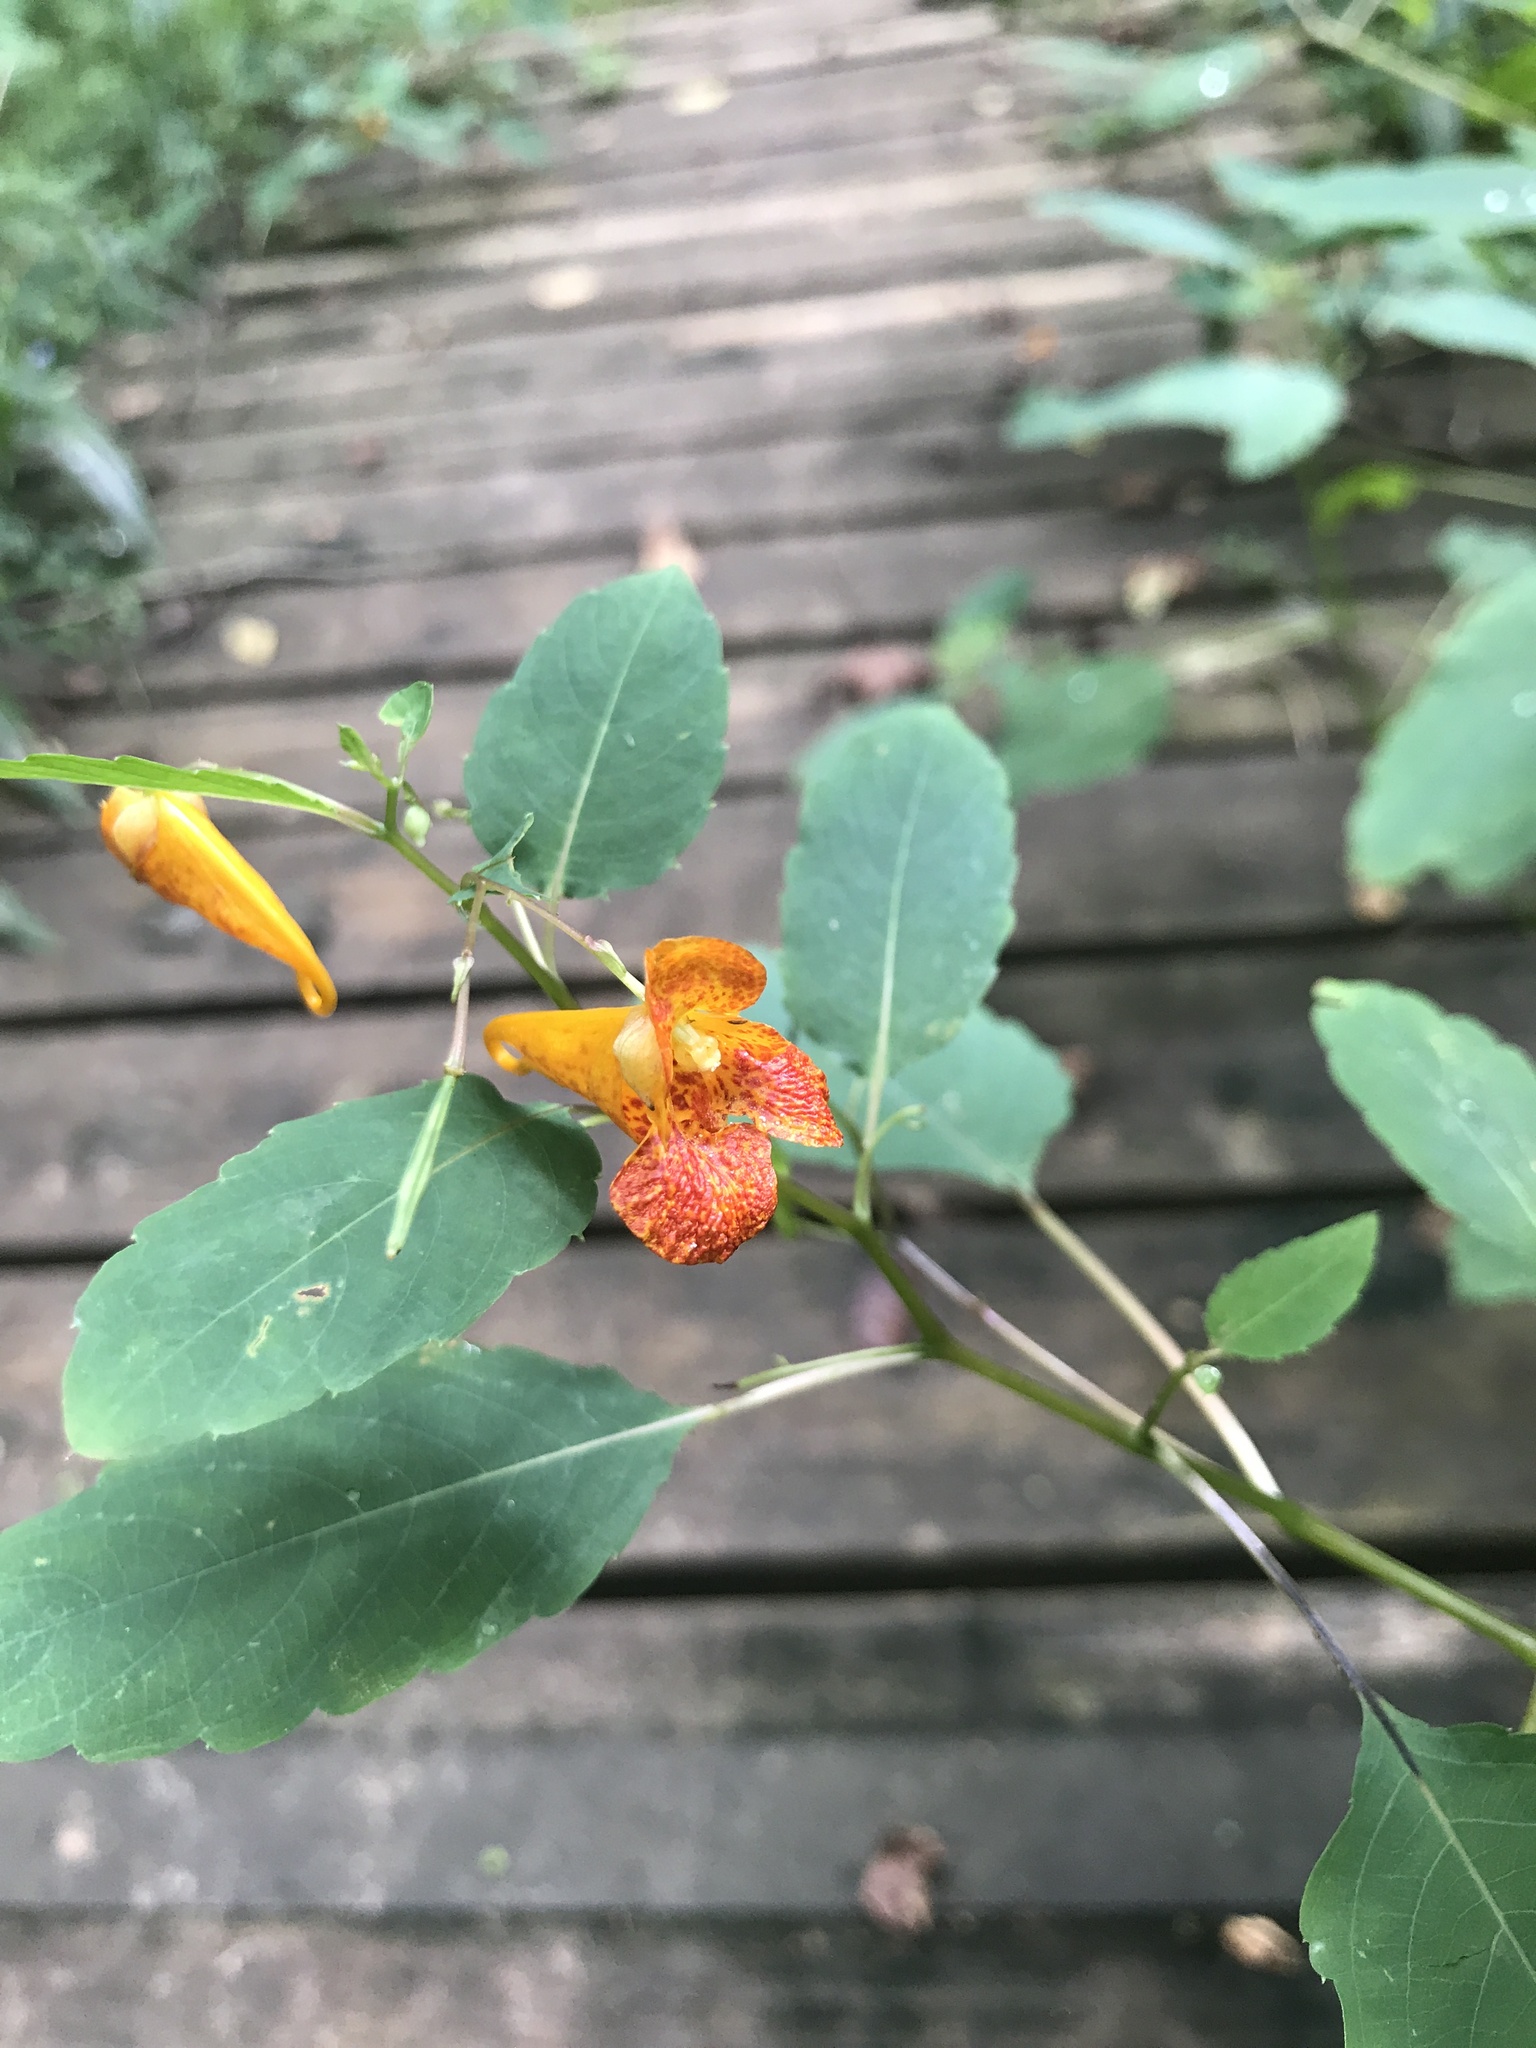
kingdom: Plantae
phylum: Tracheophyta
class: Magnoliopsida
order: Ericales
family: Balsaminaceae
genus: Impatiens
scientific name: Impatiens capensis
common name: Orange balsam
